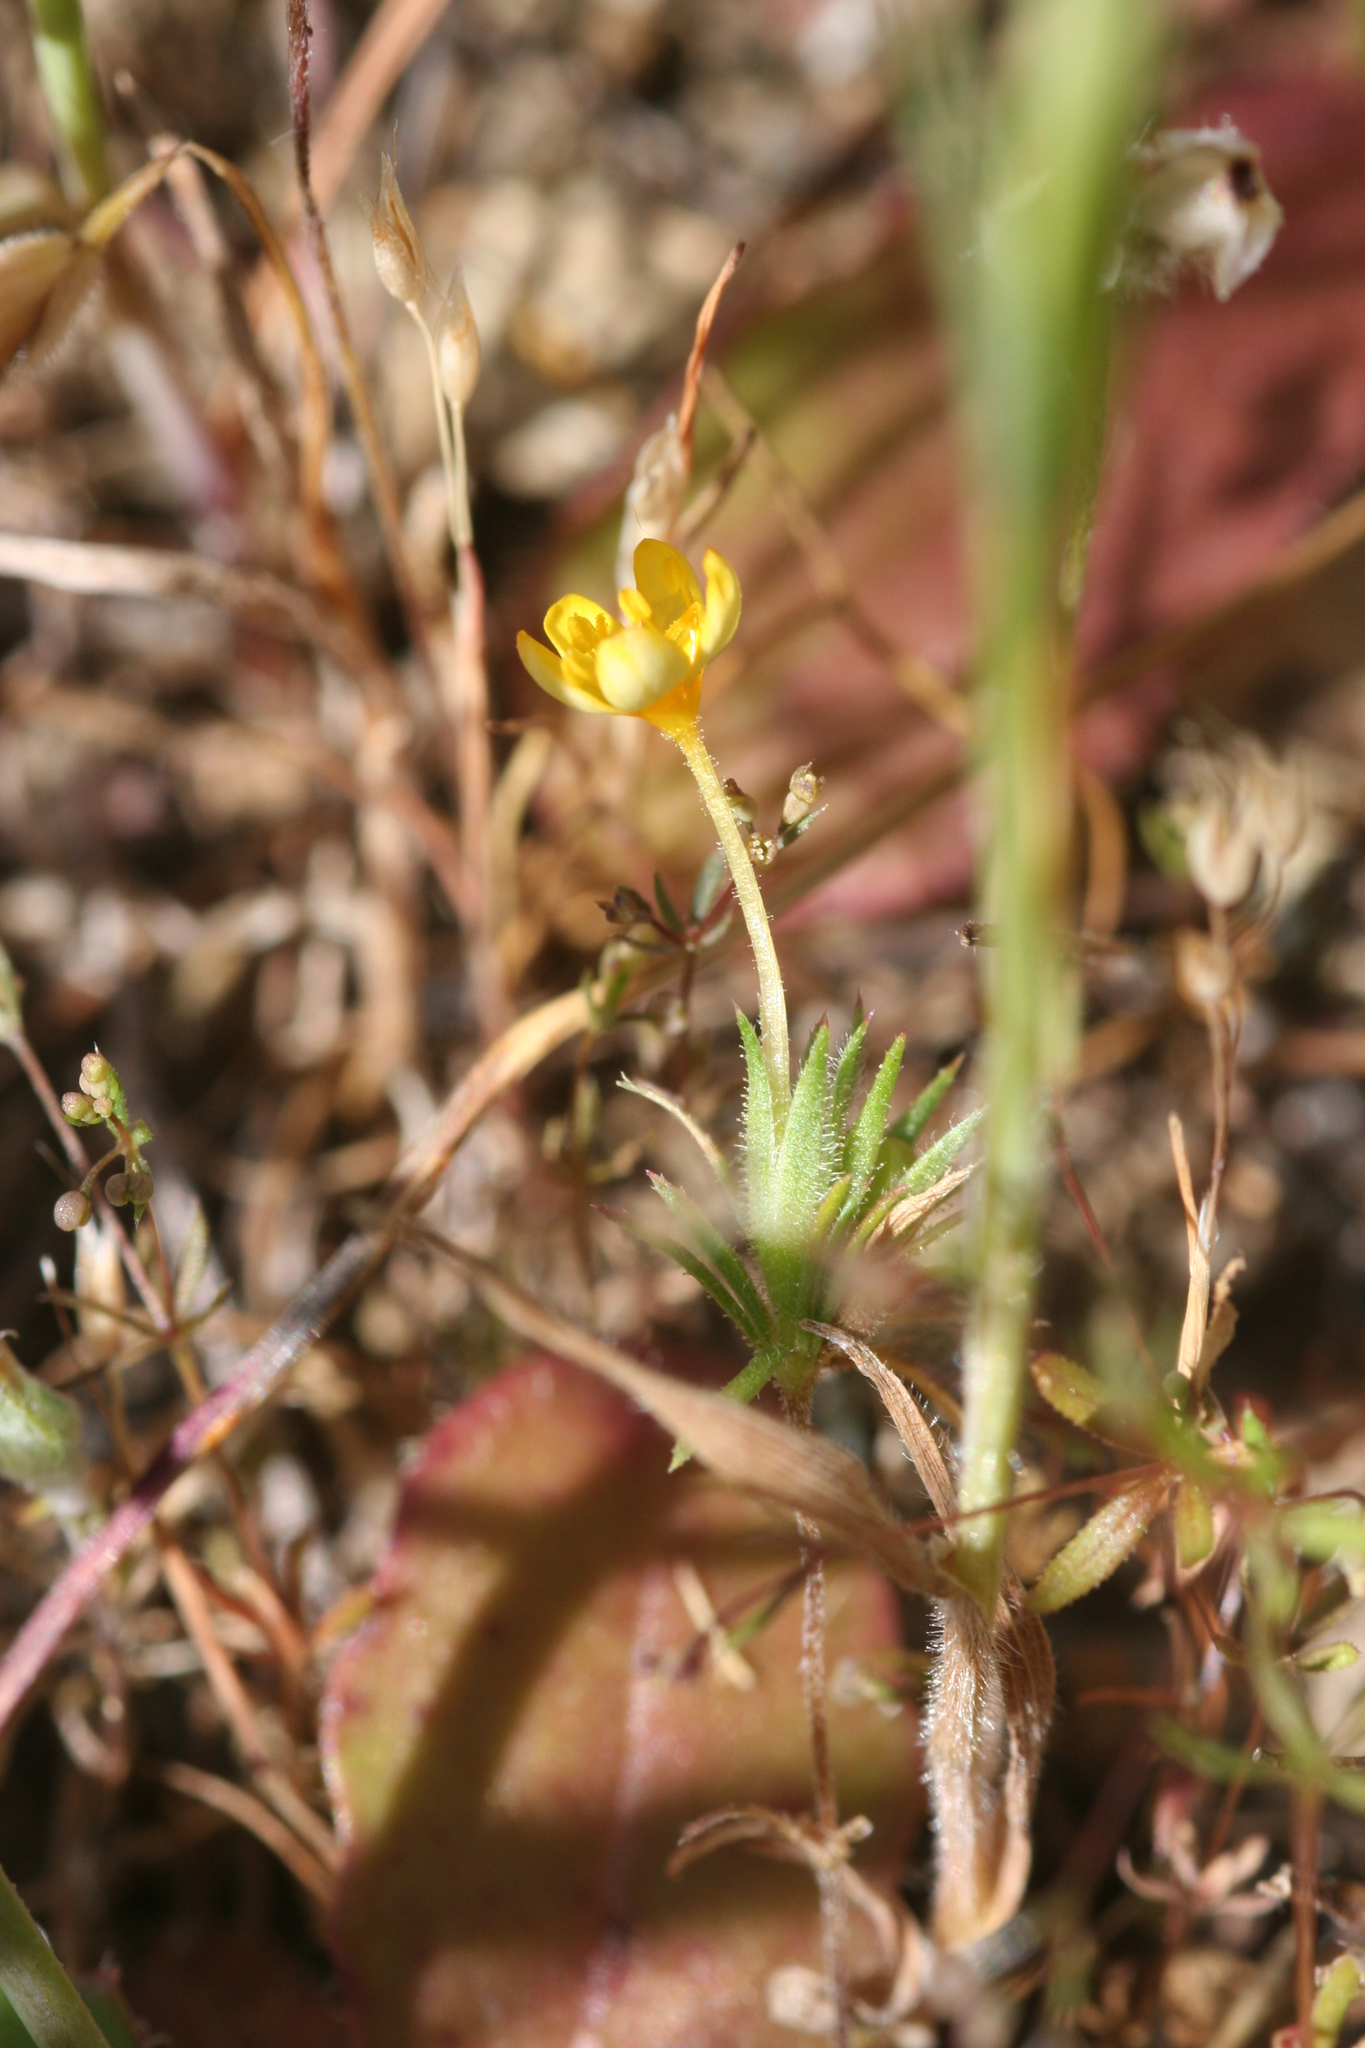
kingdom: Plantae
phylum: Tracheophyta
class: Magnoliopsida
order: Ericales
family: Polemoniaceae
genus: Leptosiphon
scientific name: Leptosiphon acicularis
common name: Bristly linanthus
